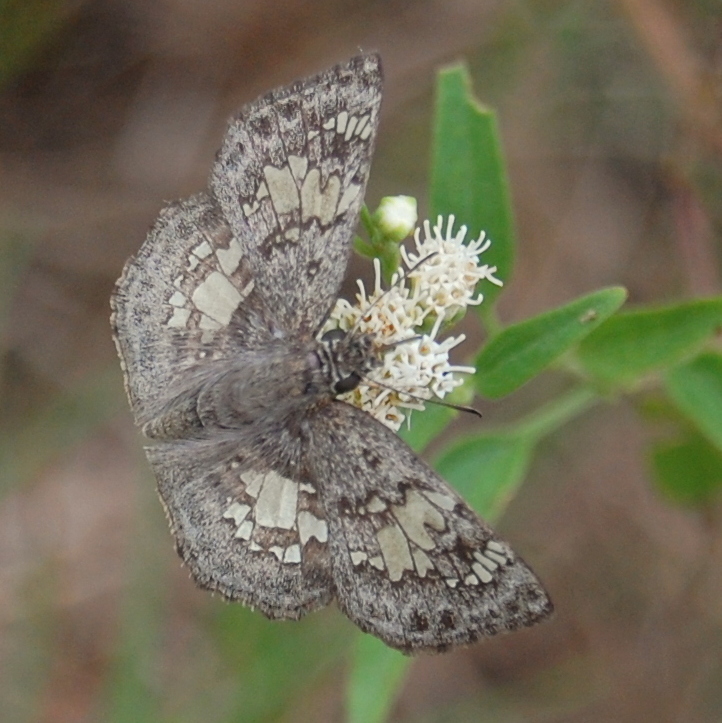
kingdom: Animalia
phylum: Arthropoda
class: Insecta
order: Lepidoptera
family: Hesperiidae
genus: Xenophanes
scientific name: Xenophanes tryxus
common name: Glassy-winged skipper
